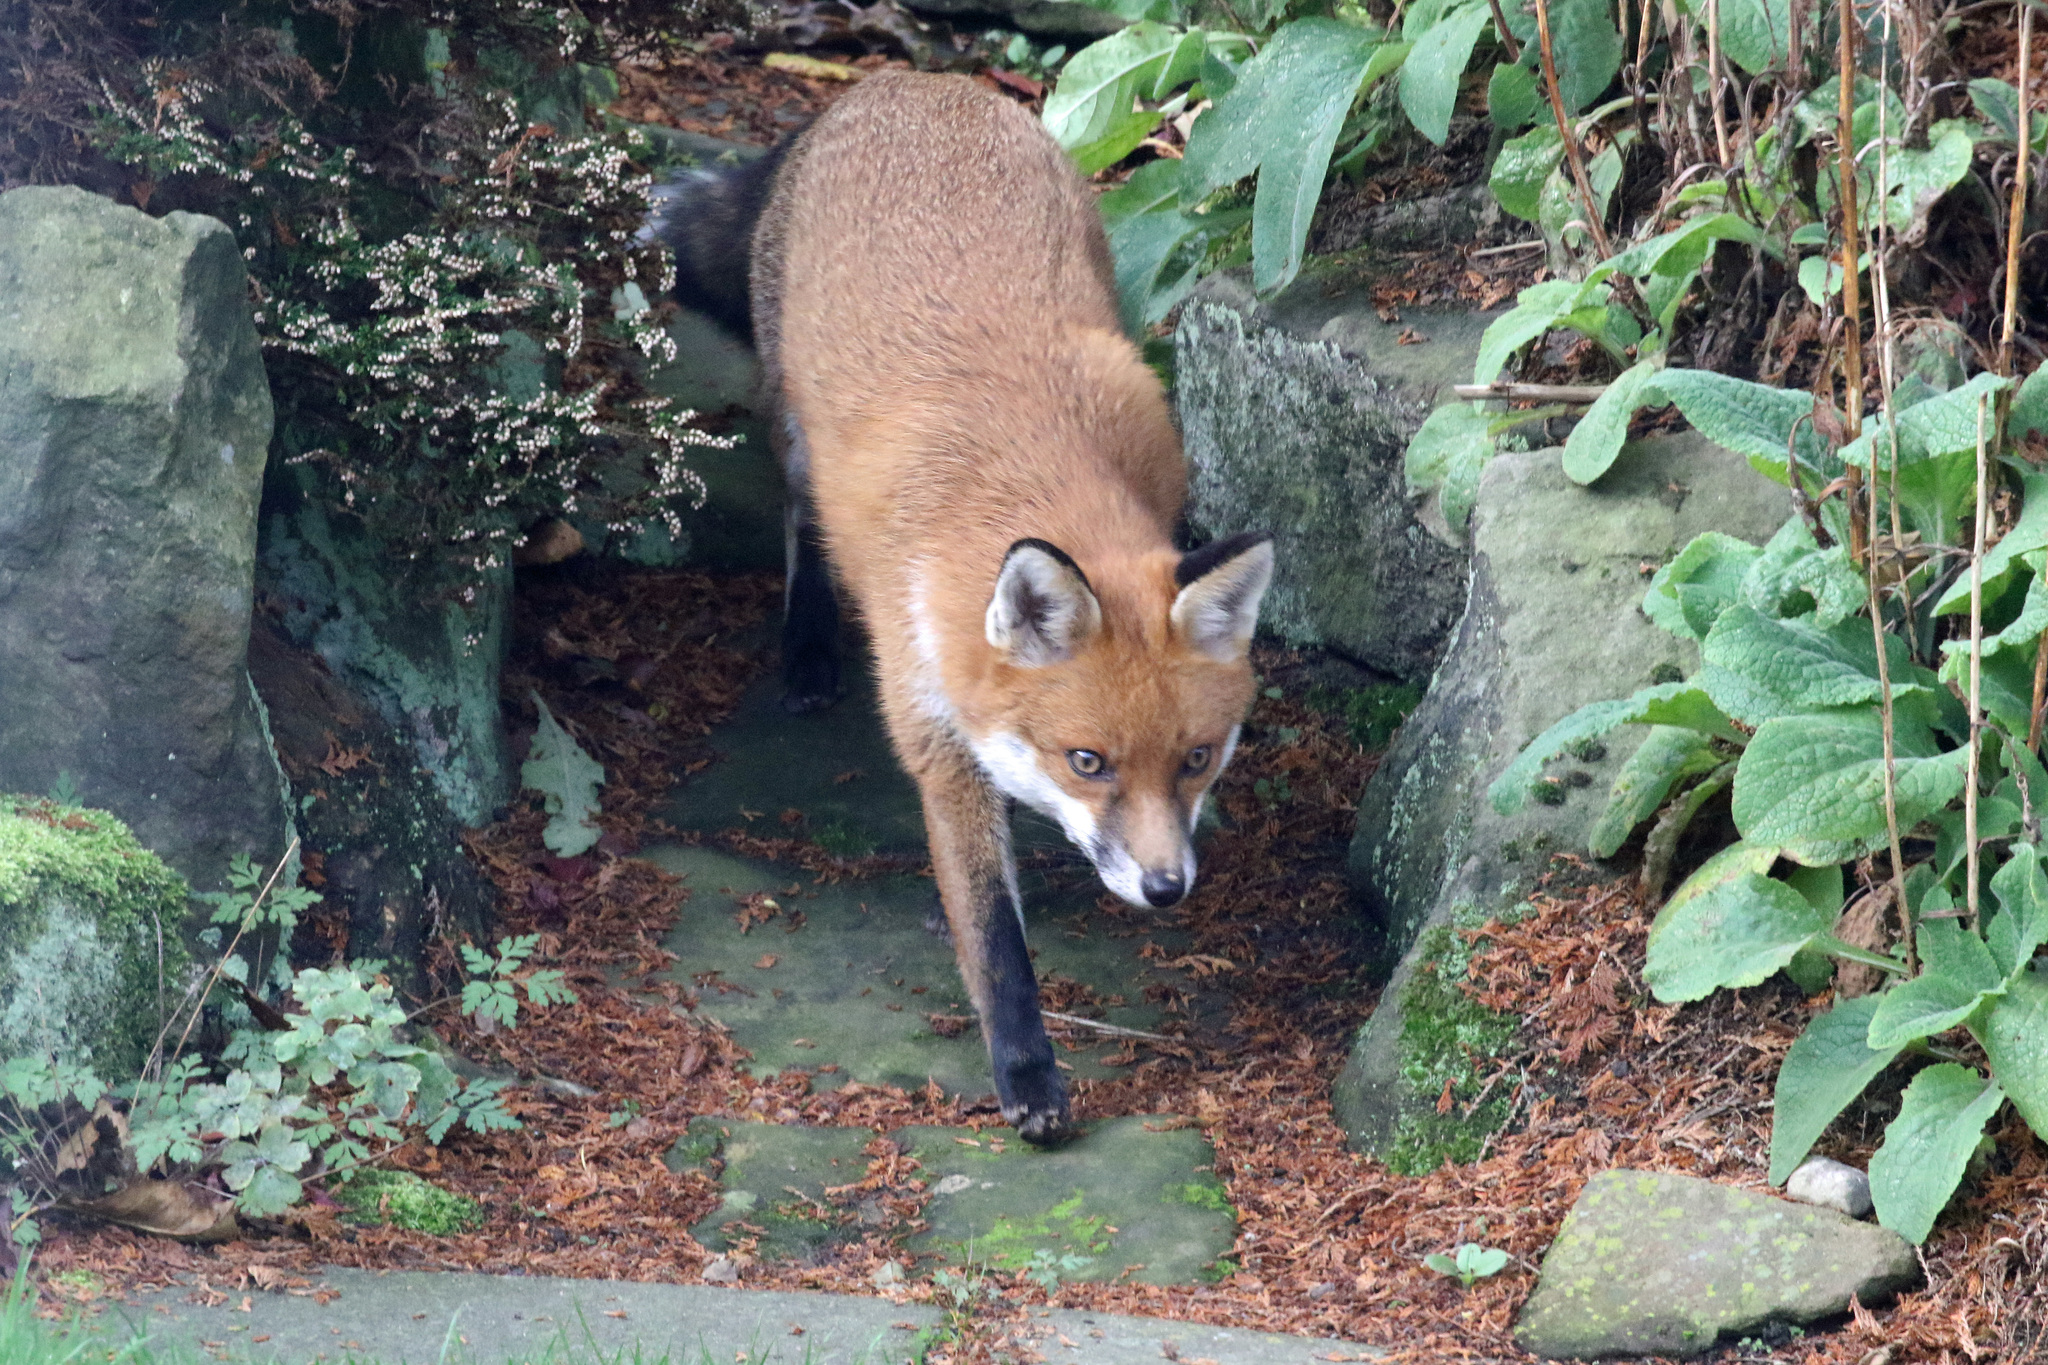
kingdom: Animalia
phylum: Chordata
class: Mammalia
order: Carnivora
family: Canidae
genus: Vulpes
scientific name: Vulpes vulpes
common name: Red fox
